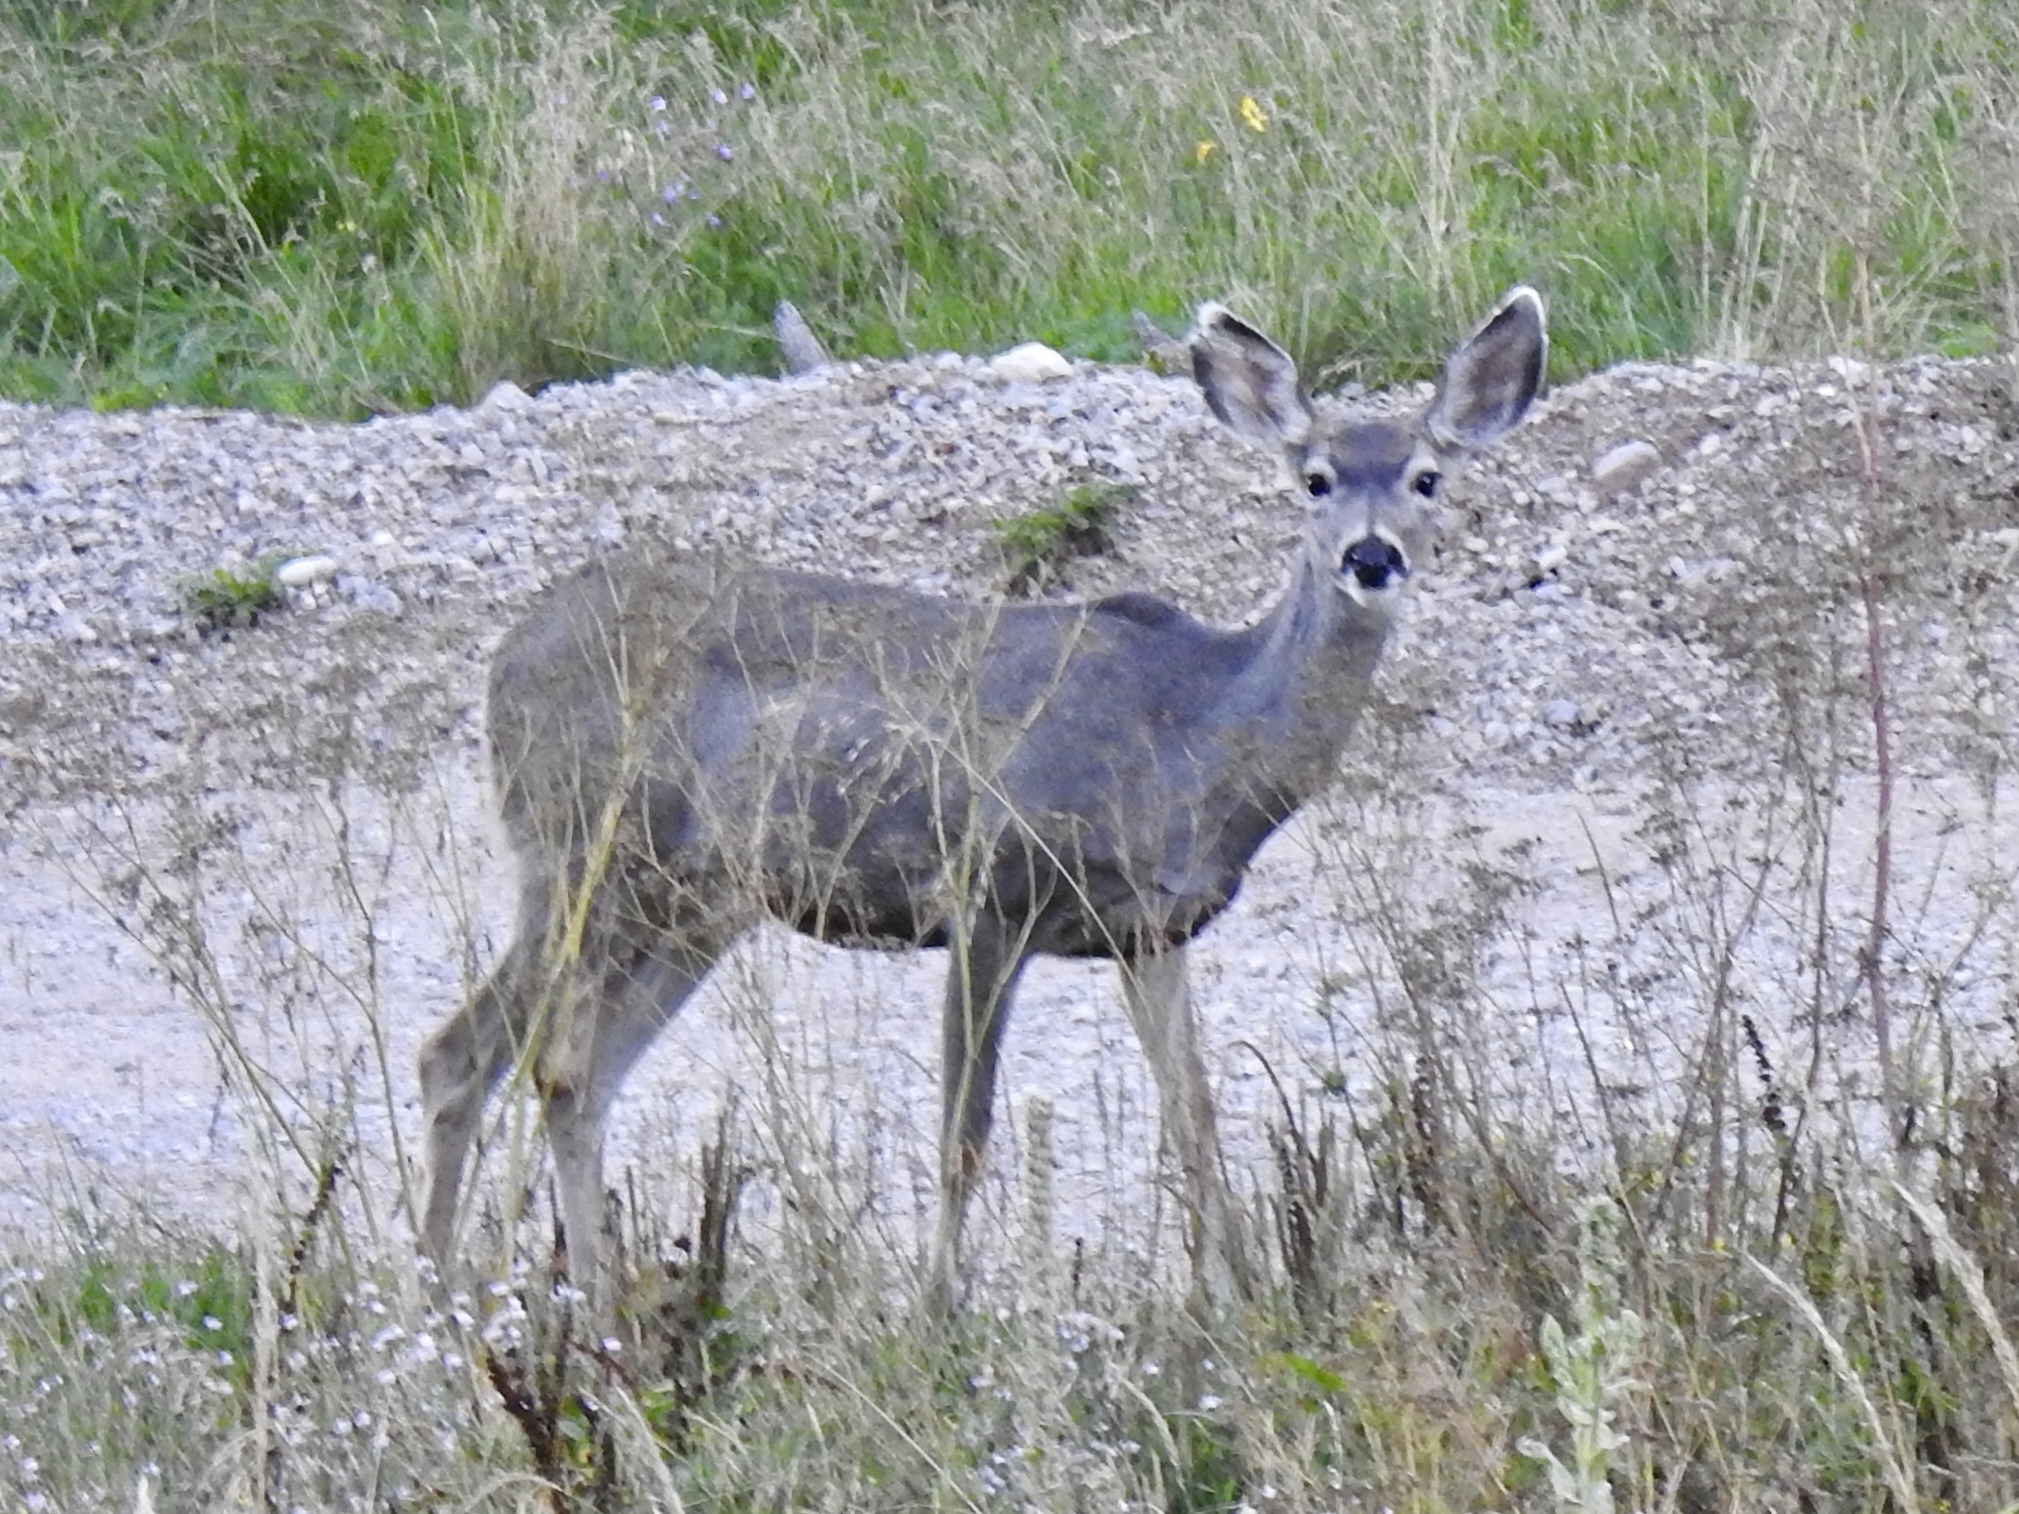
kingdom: Animalia
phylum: Chordata
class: Mammalia
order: Artiodactyla
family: Cervidae
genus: Odocoileus
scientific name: Odocoileus hemionus
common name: Mule deer
